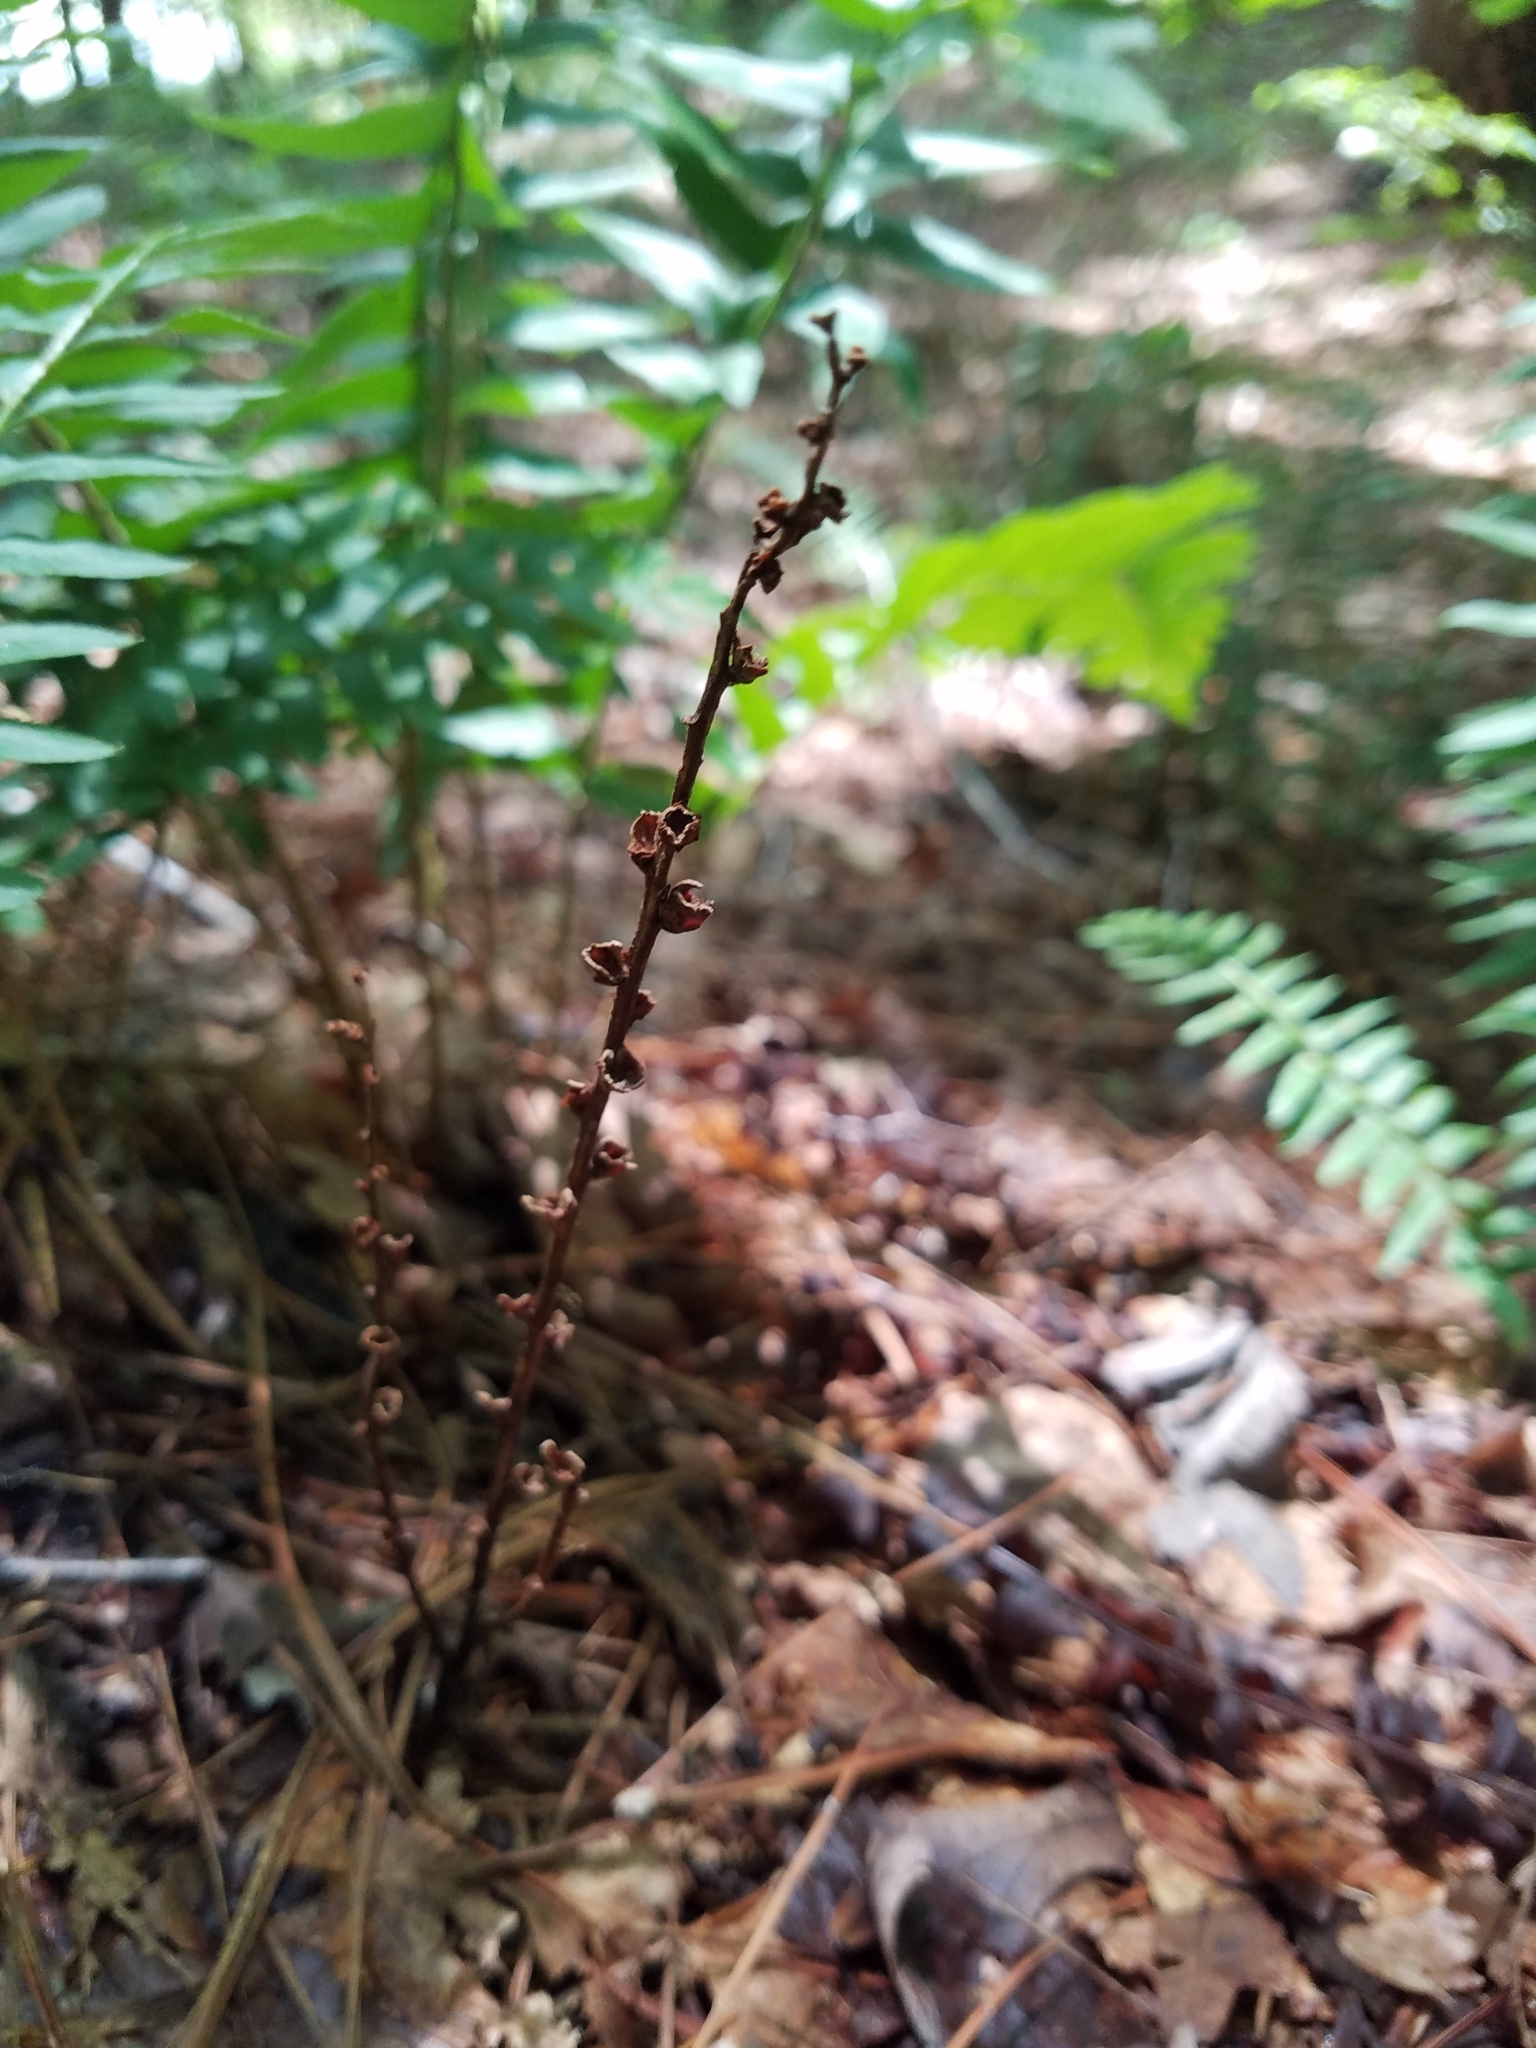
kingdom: Plantae
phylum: Tracheophyta
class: Magnoliopsida
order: Lamiales
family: Orobanchaceae
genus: Epifagus
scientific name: Epifagus virginiana
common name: Beechdrops
